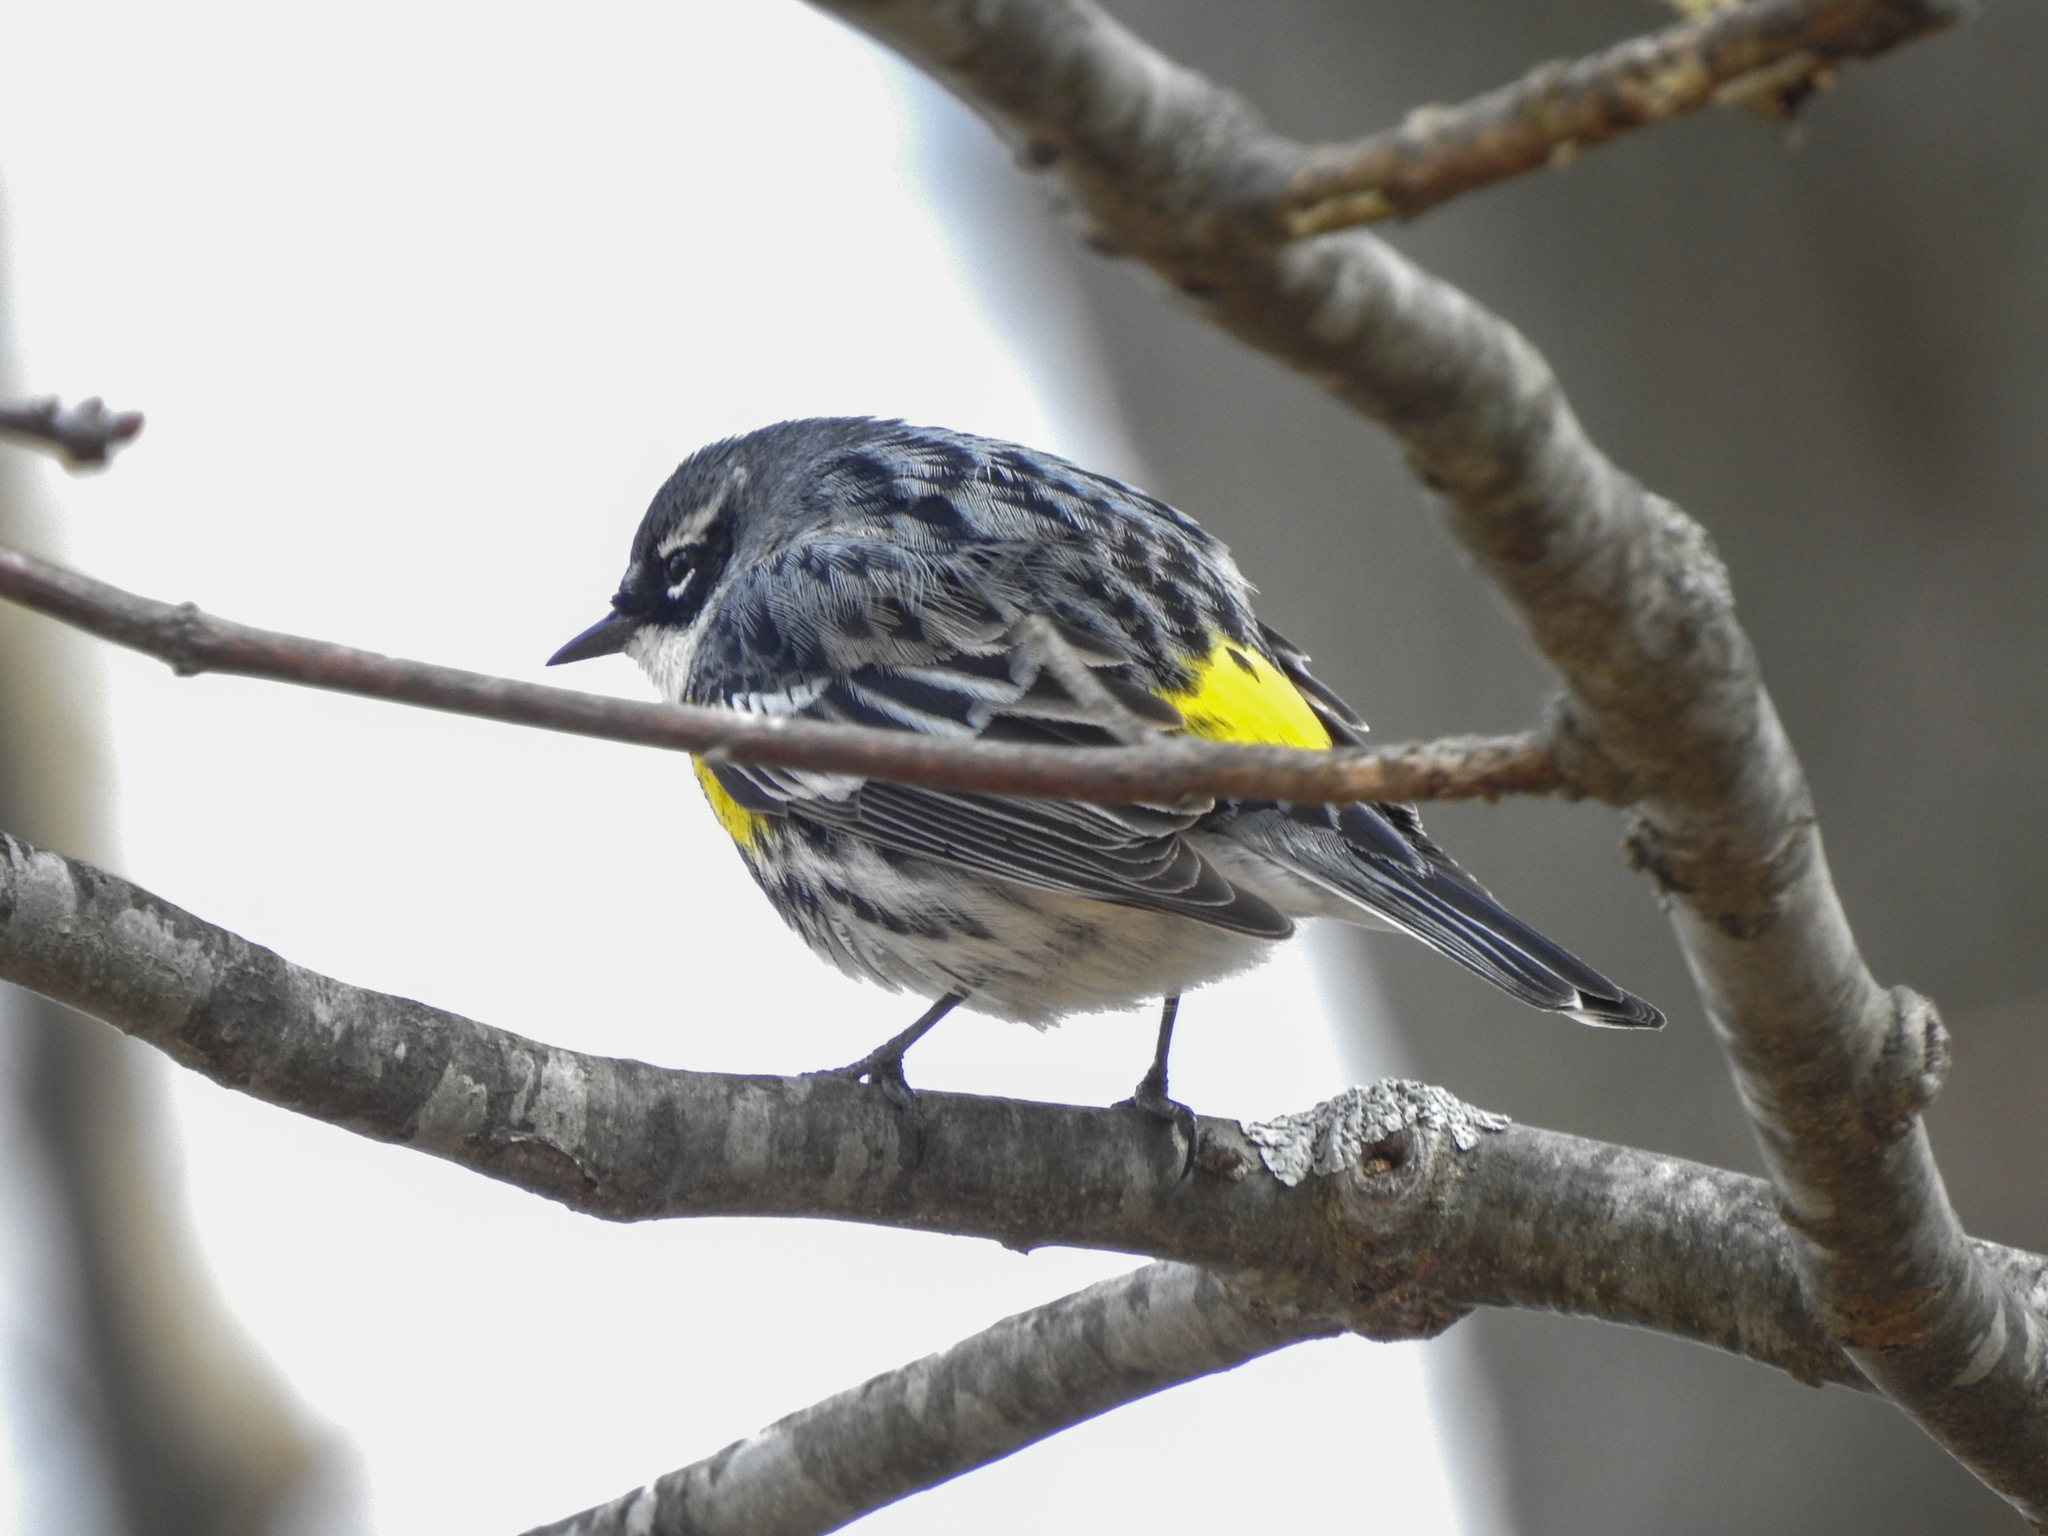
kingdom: Animalia
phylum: Chordata
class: Aves
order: Passeriformes
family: Parulidae
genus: Setophaga
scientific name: Setophaga coronata
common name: Myrtle warbler
